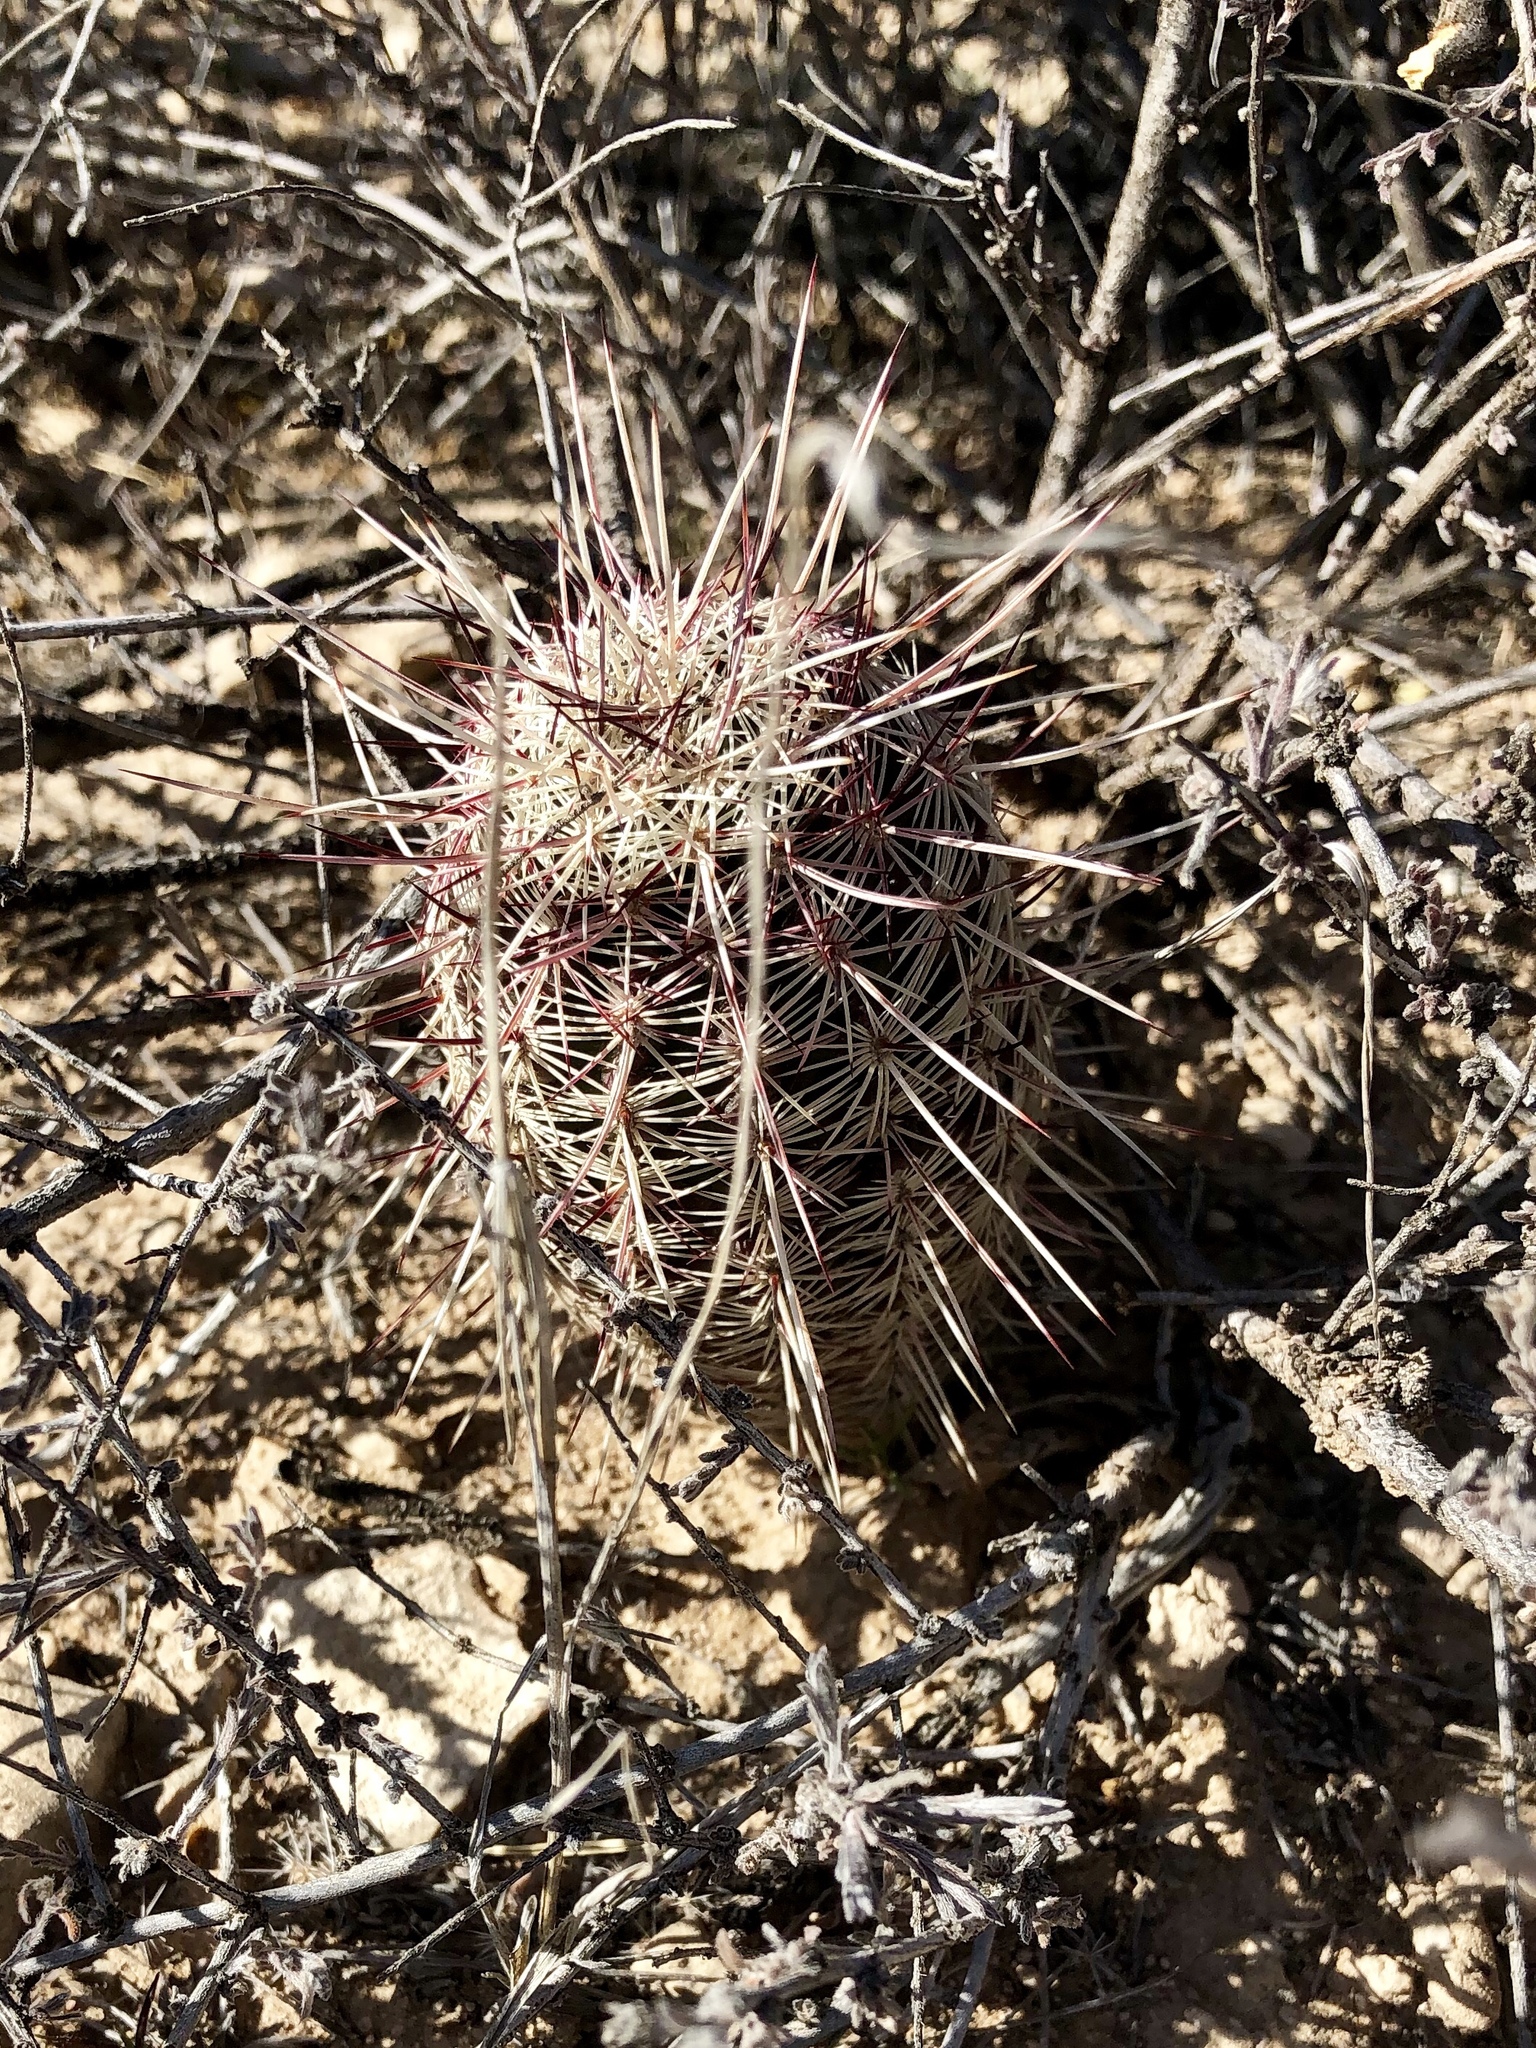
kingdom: Plantae
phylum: Tracheophyta
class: Magnoliopsida
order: Caryophyllales
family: Cactaceae
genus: Echinocereus
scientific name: Echinocereus viridiflorus
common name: Nylon hedgehog cactus
